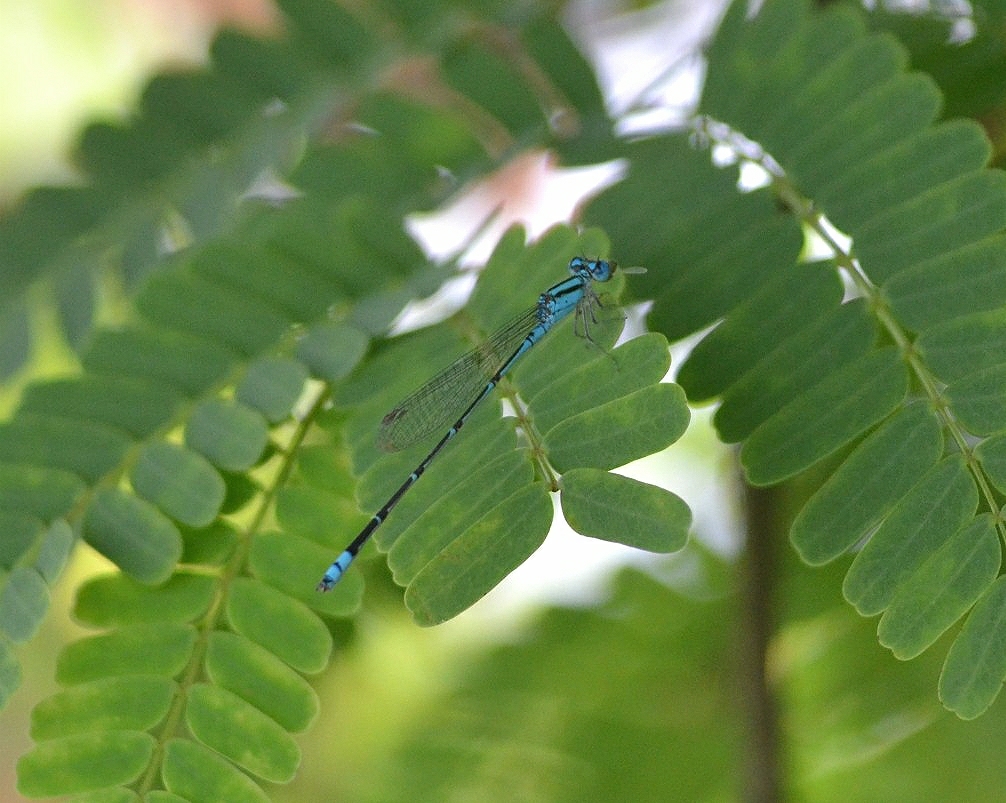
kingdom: Animalia
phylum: Arthropoda
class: Insecta
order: Odonata
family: Coenagrionidae
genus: Pseudagrion
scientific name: Pseudagrion microcephalum
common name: Blue riverdamsel
